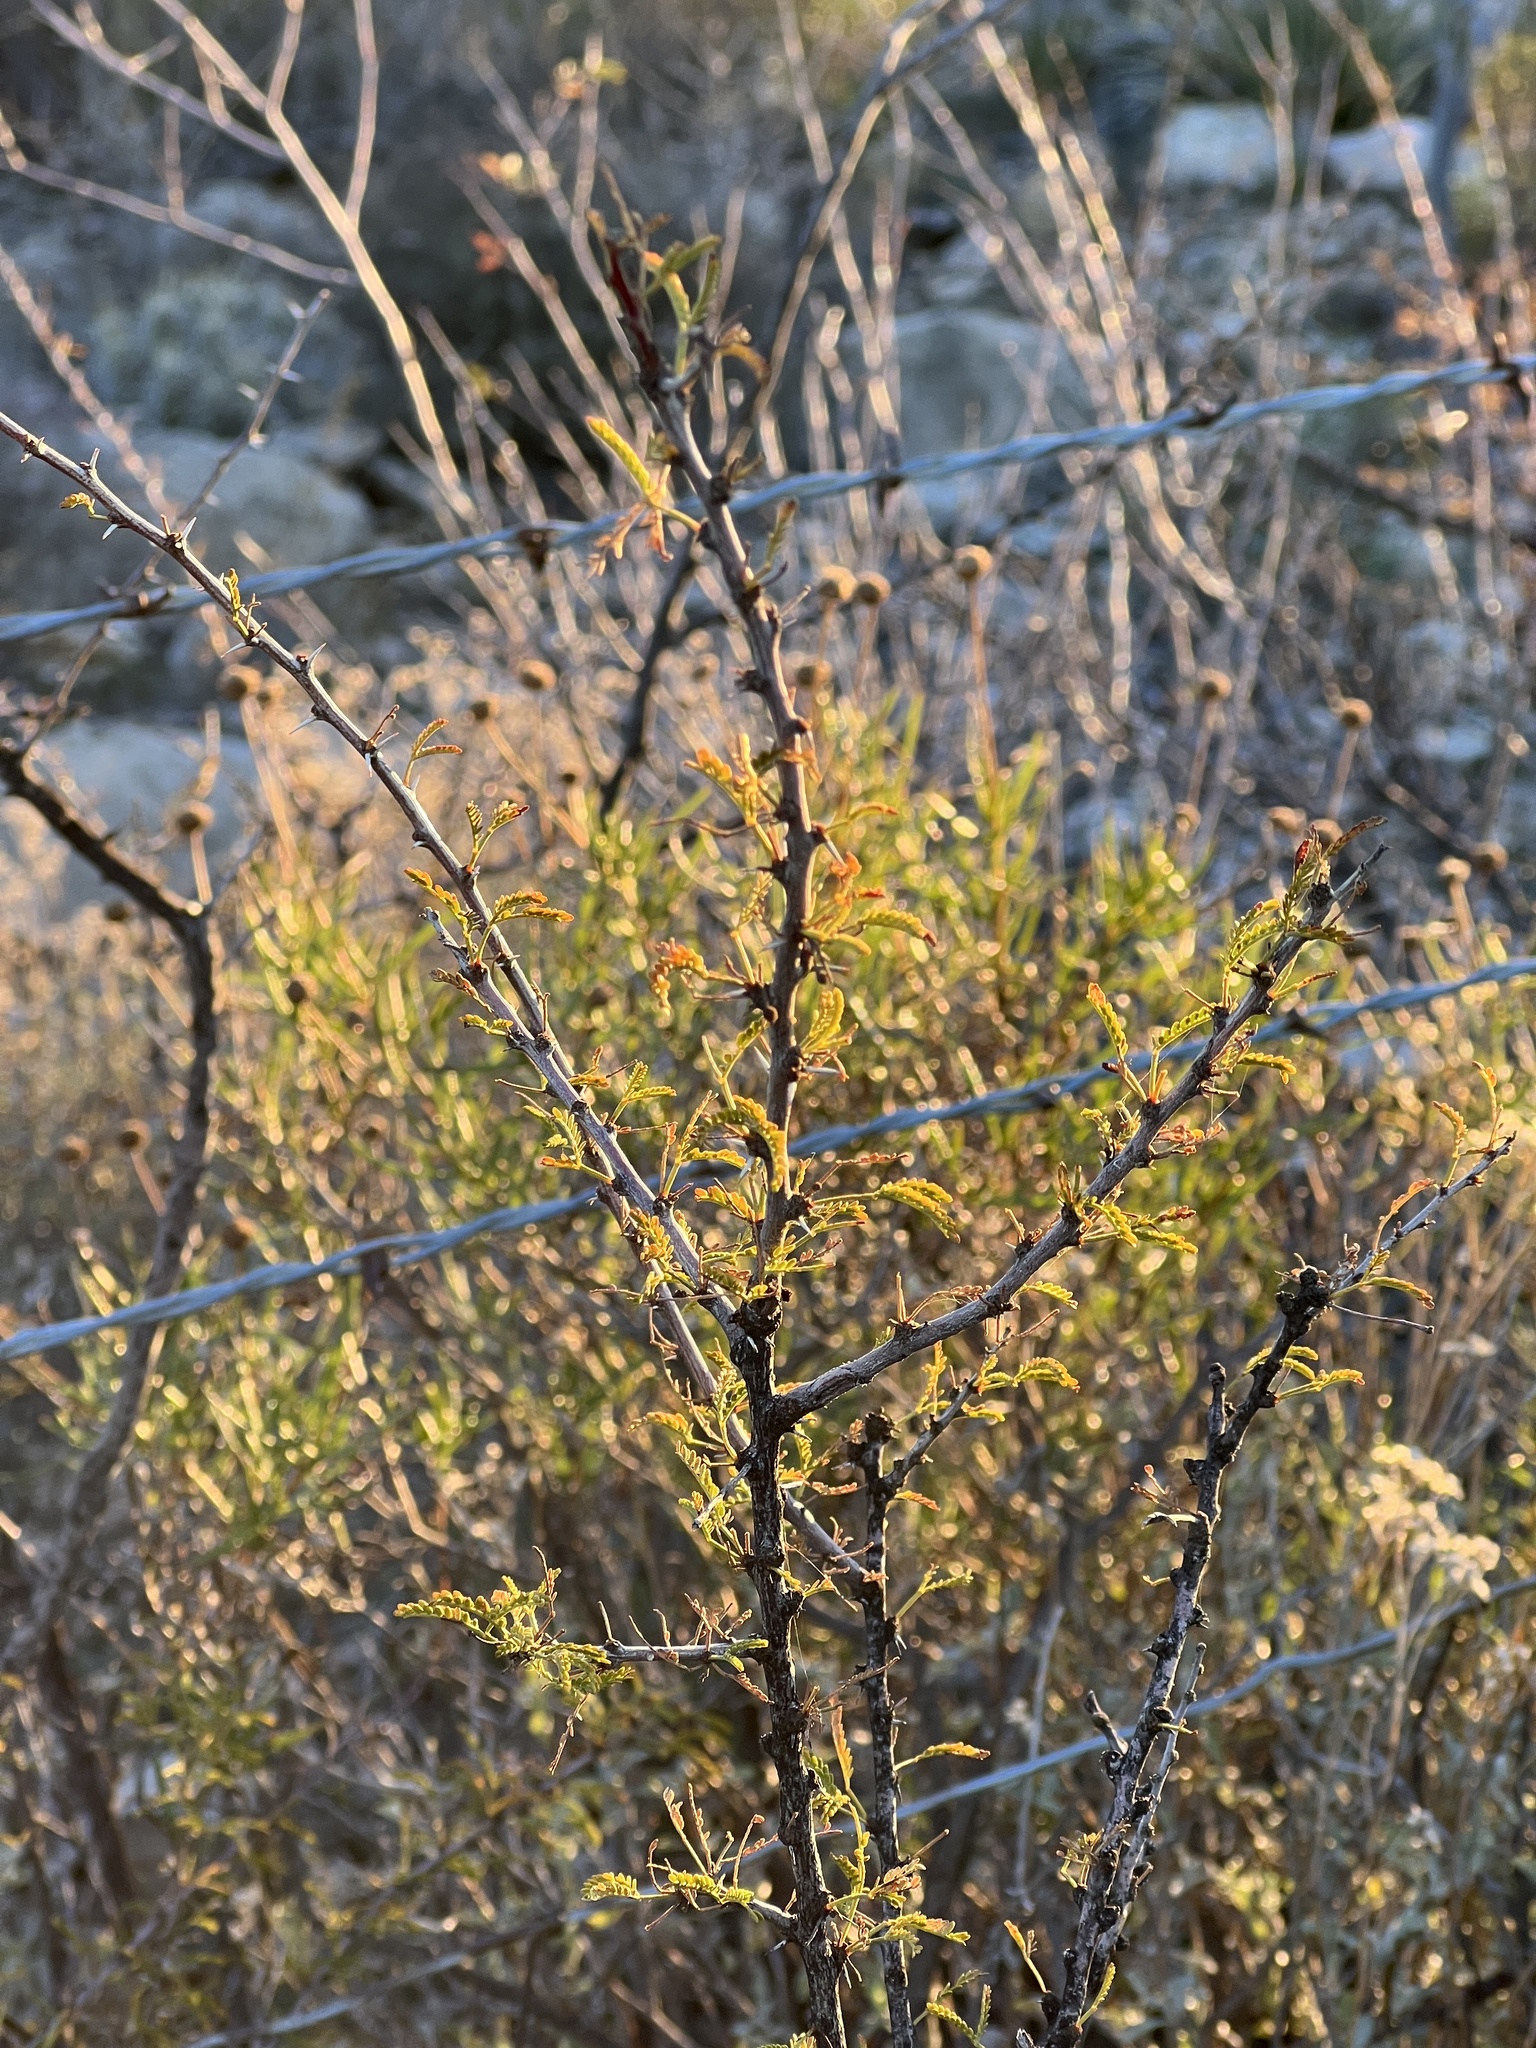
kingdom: Plantae
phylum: Tracheophyta
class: Magnoliopsida
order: Fabales
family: Fabaceae
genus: Vachellia
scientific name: Vachellia vernicosa
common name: Viscid acacia
